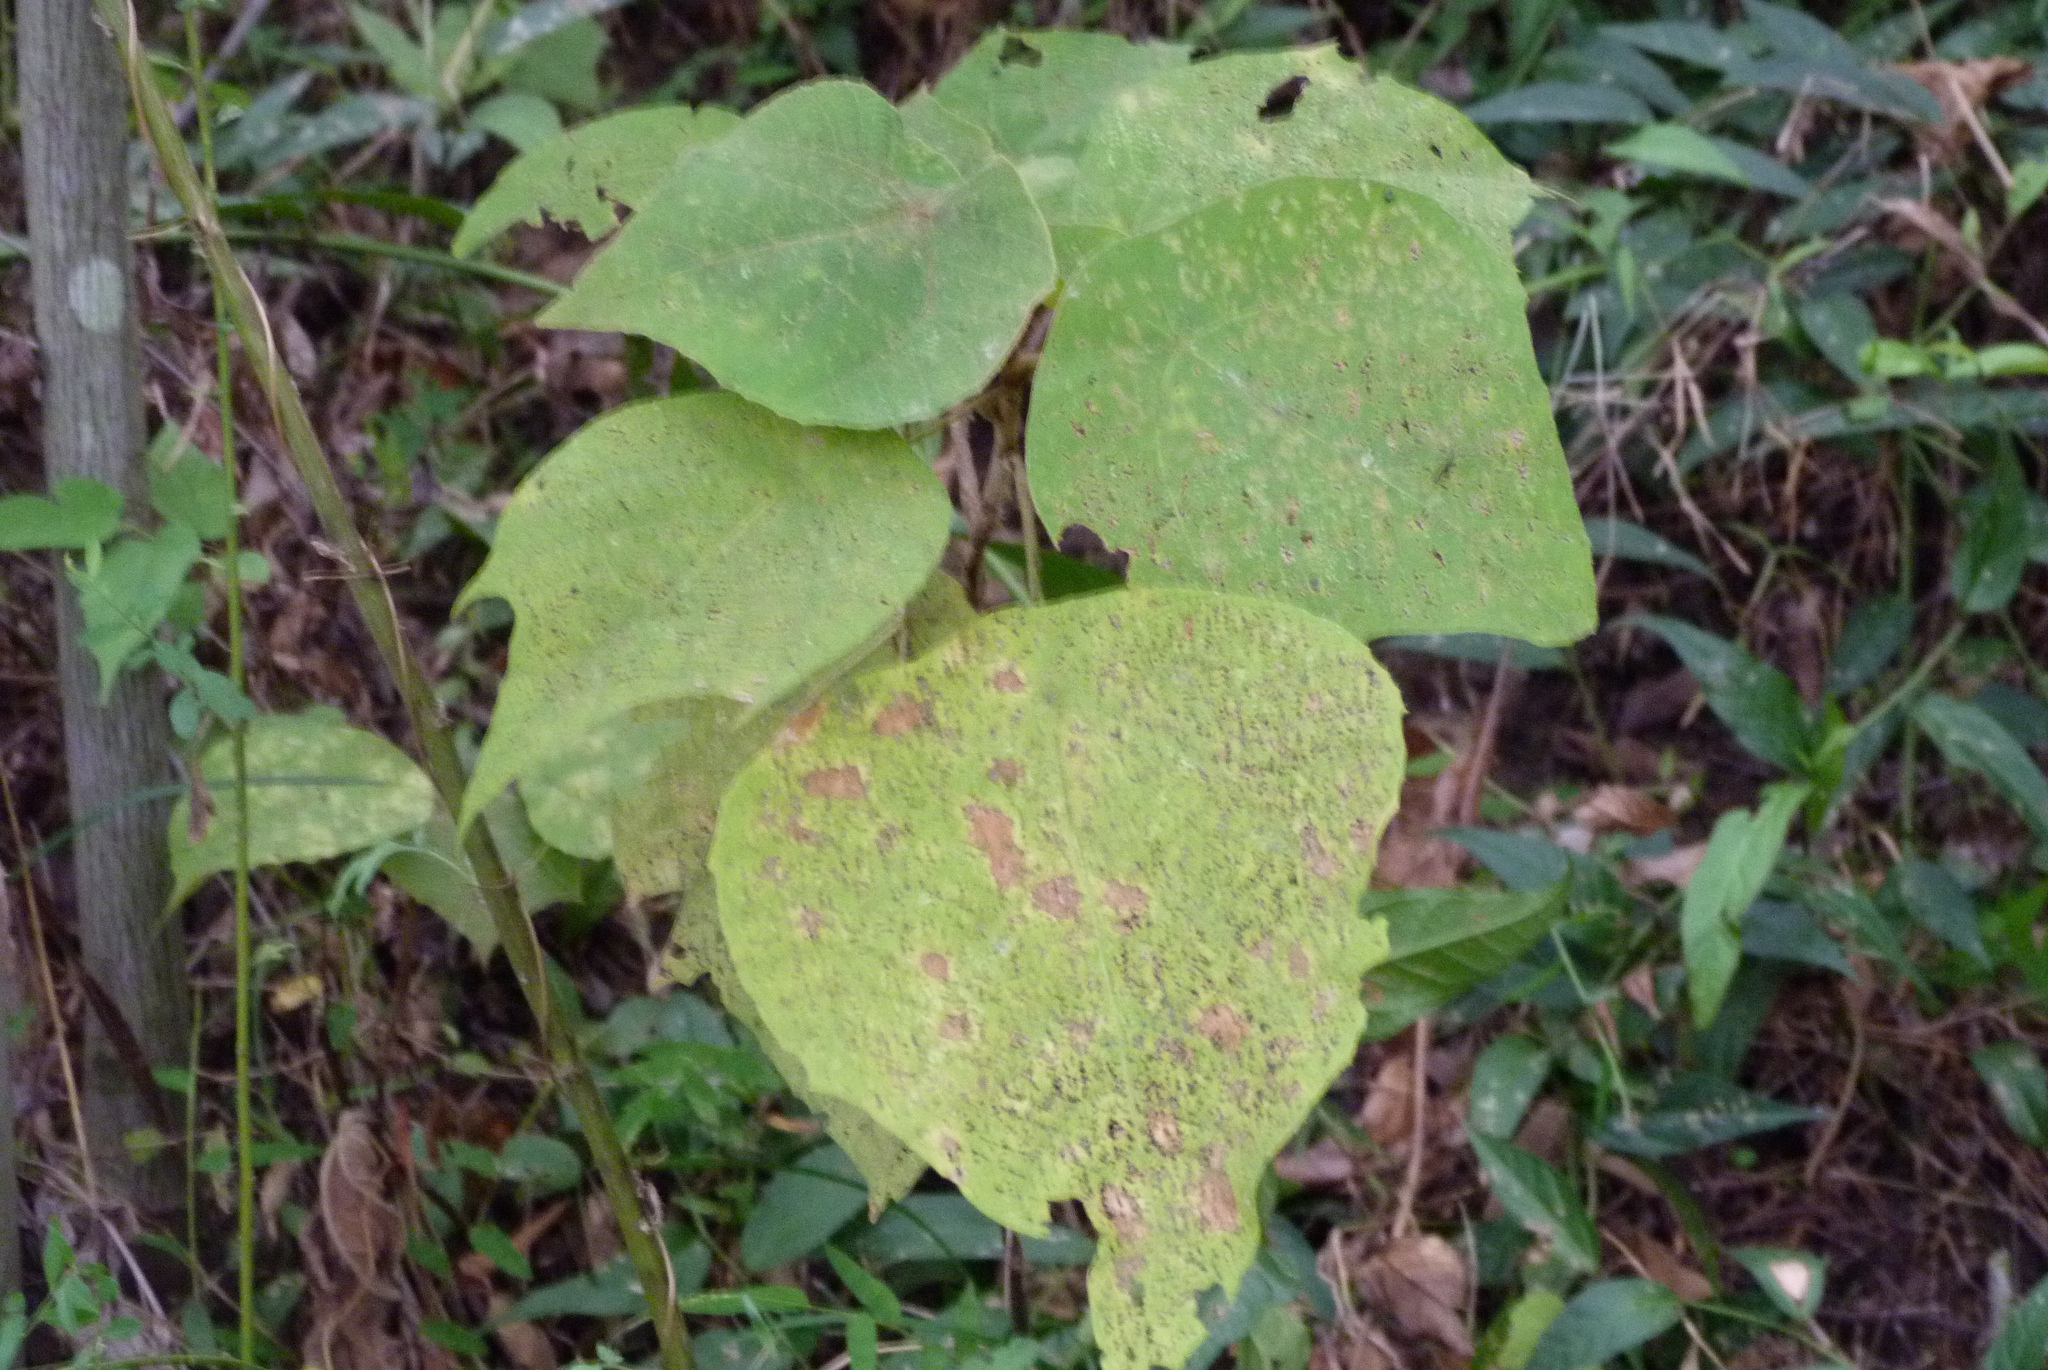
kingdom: Plantae
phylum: Tracheophyta
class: Magnoliopsida
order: Malpighiales
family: Euphorbiaceae
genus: Vernicia
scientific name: Vernicia fordii
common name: Tungoil tree
